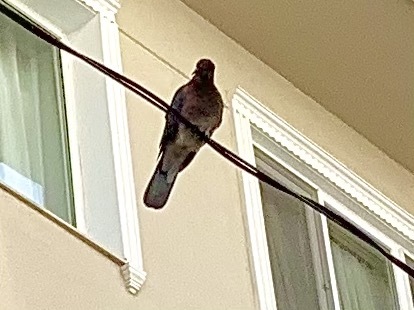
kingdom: Animalia
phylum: Chordata
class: Aves
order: Columbiformes
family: Columbidae
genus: Spilopelia
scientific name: Spilopelia senegalensis
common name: Laughing dove
